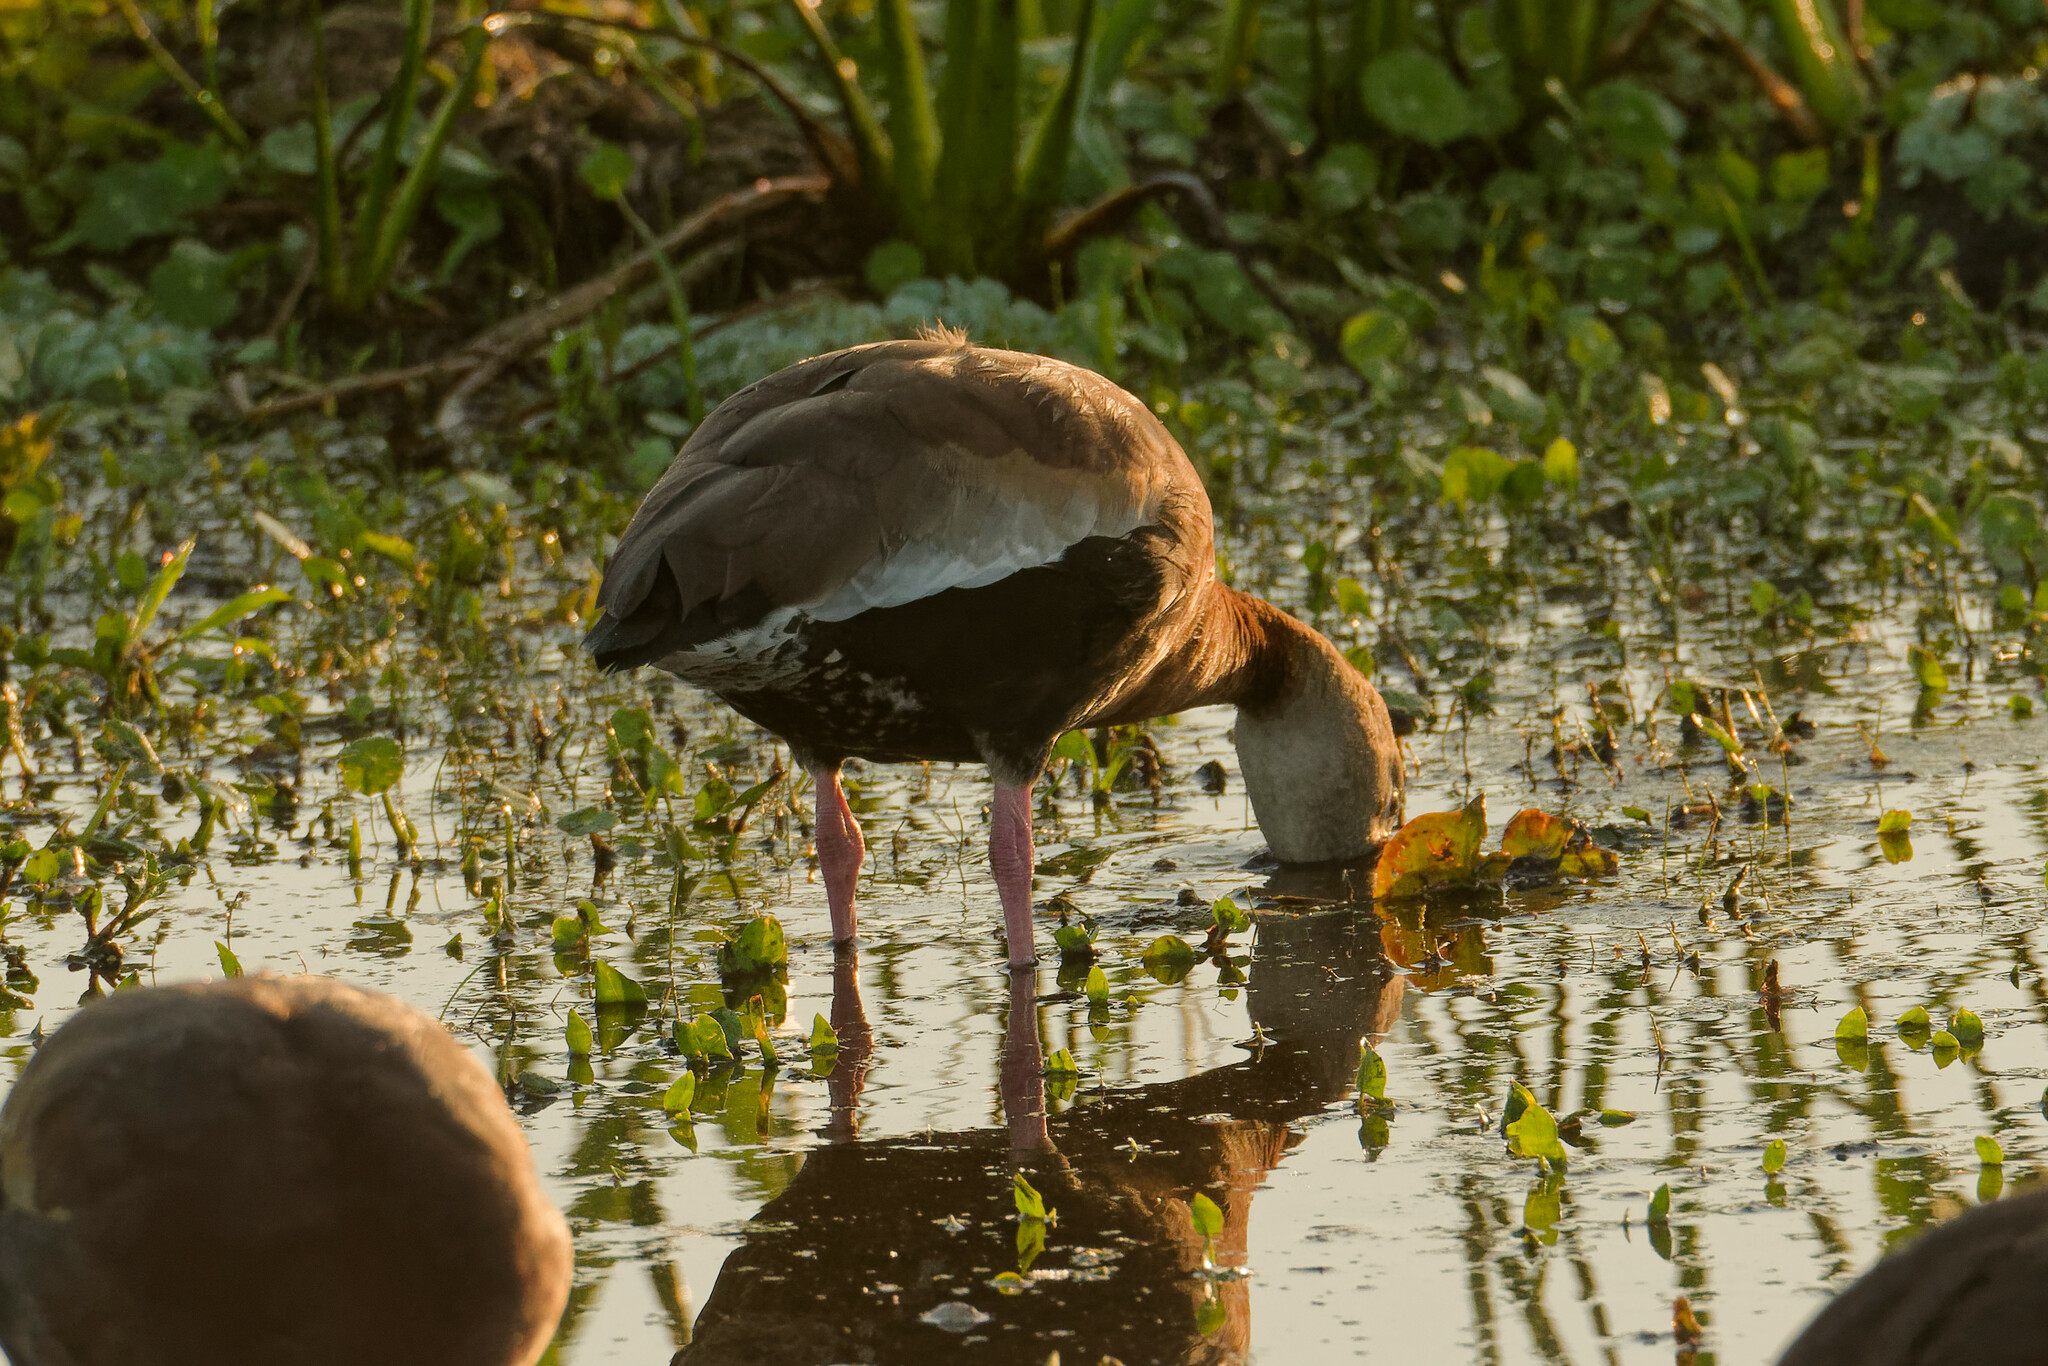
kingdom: Animalia
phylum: Chordata
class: Aves
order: Anseriformes
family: Anatidae
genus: Dendrocygna
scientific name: Dendrocygna autumnalis
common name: Black-bellied whistling duck
